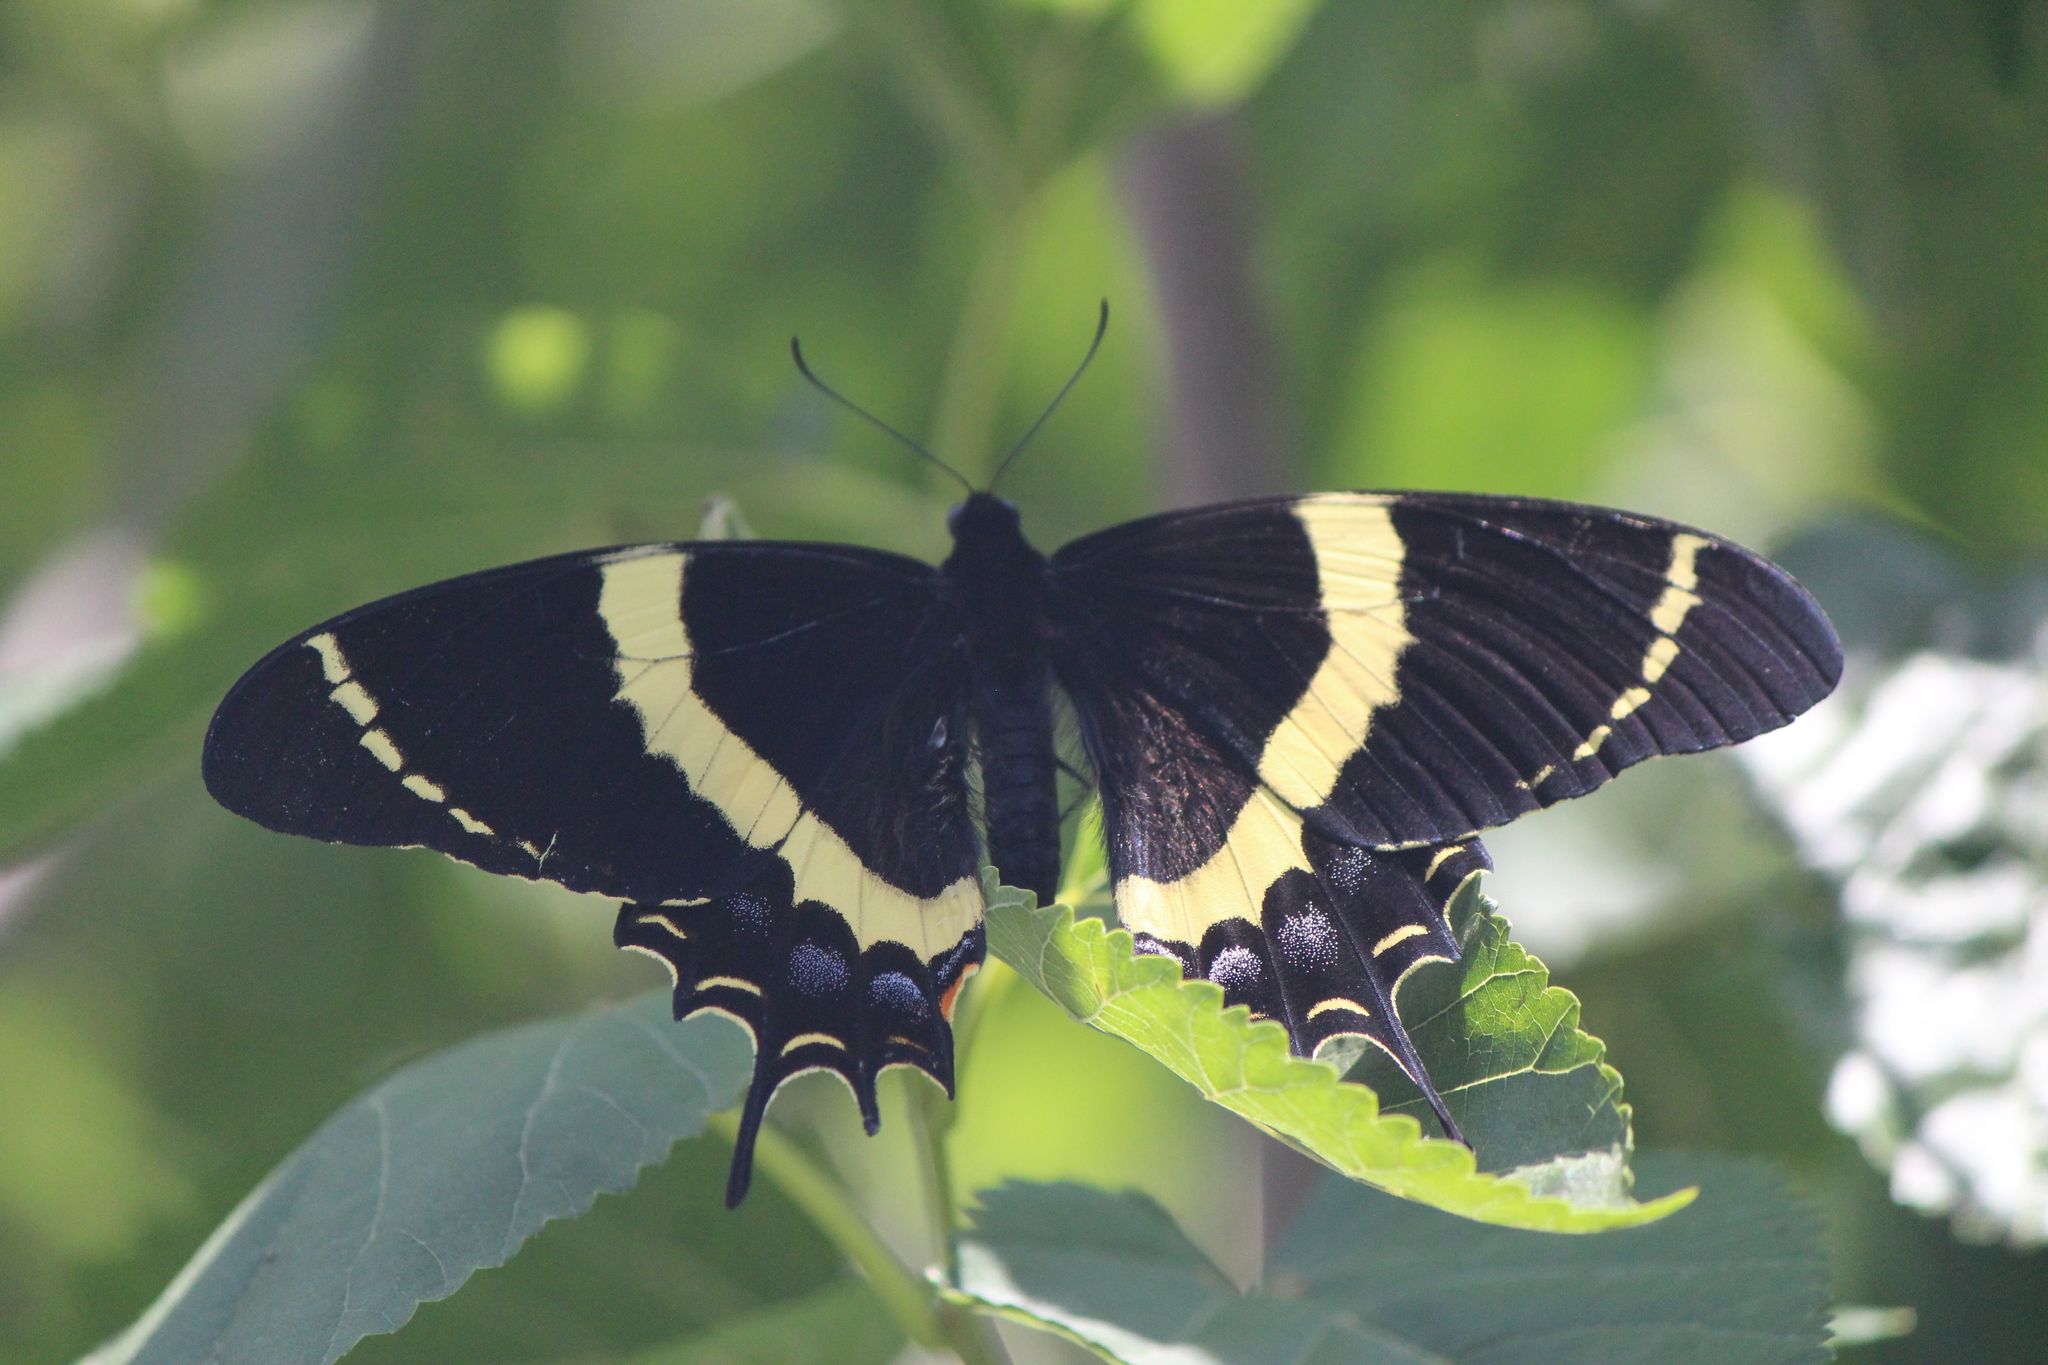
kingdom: Animalia
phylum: Arthropoda
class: Insecta
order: Lepidoptera
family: Papilionidae
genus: Papilio
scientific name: Papilio garamas
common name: Magnificent swallowtail
